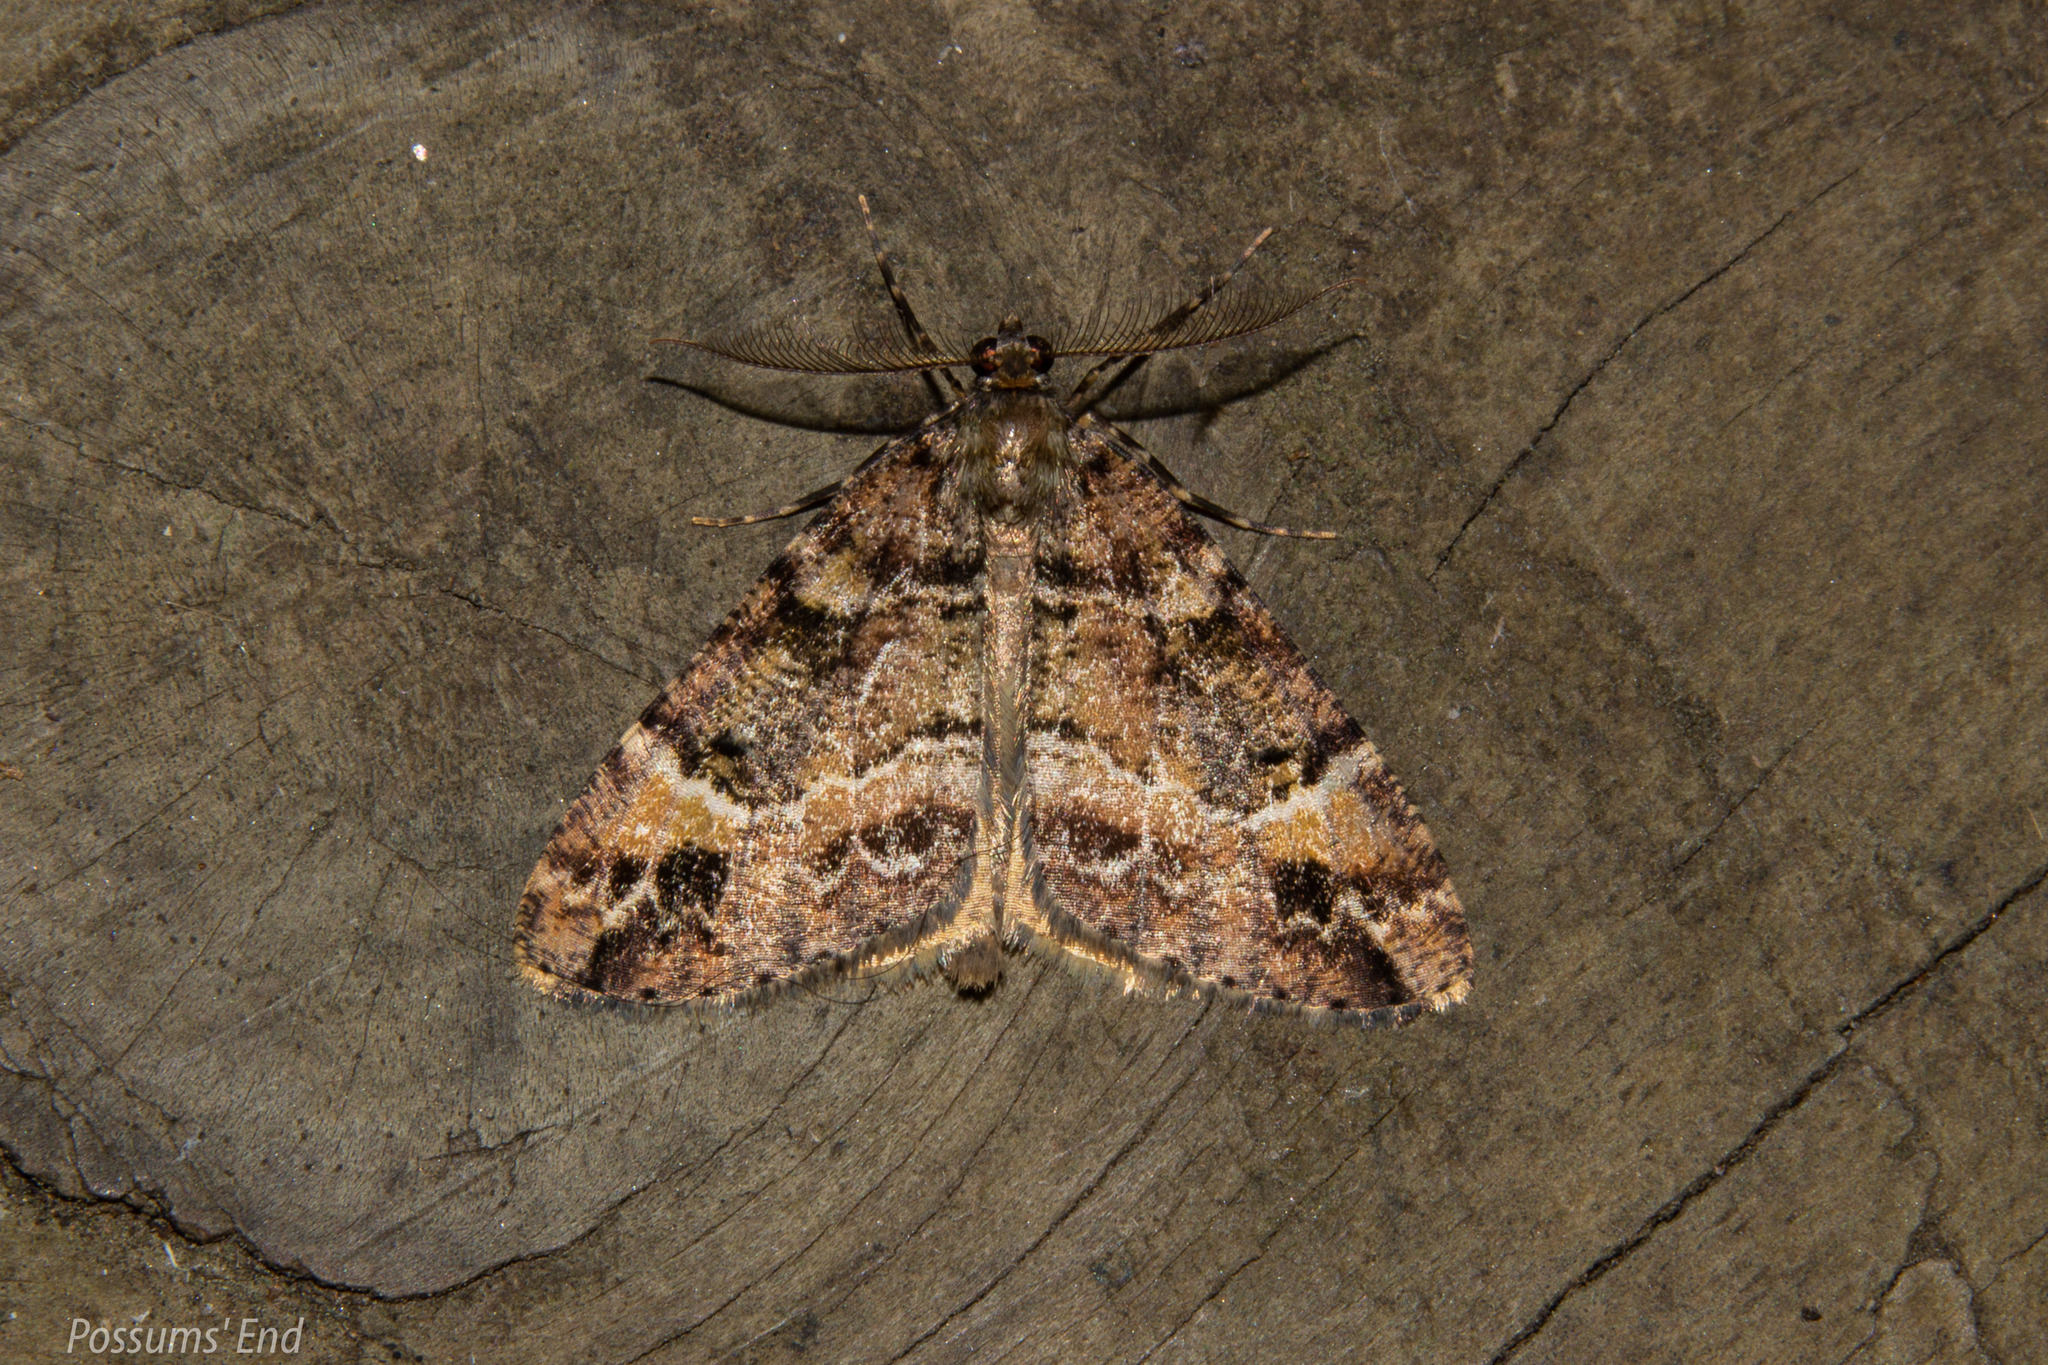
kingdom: Animalia
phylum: Arthropoda
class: Insecta
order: Lepidoptera
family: Geometridae
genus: Pseudocoremia
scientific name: Pseudocoremia productata
